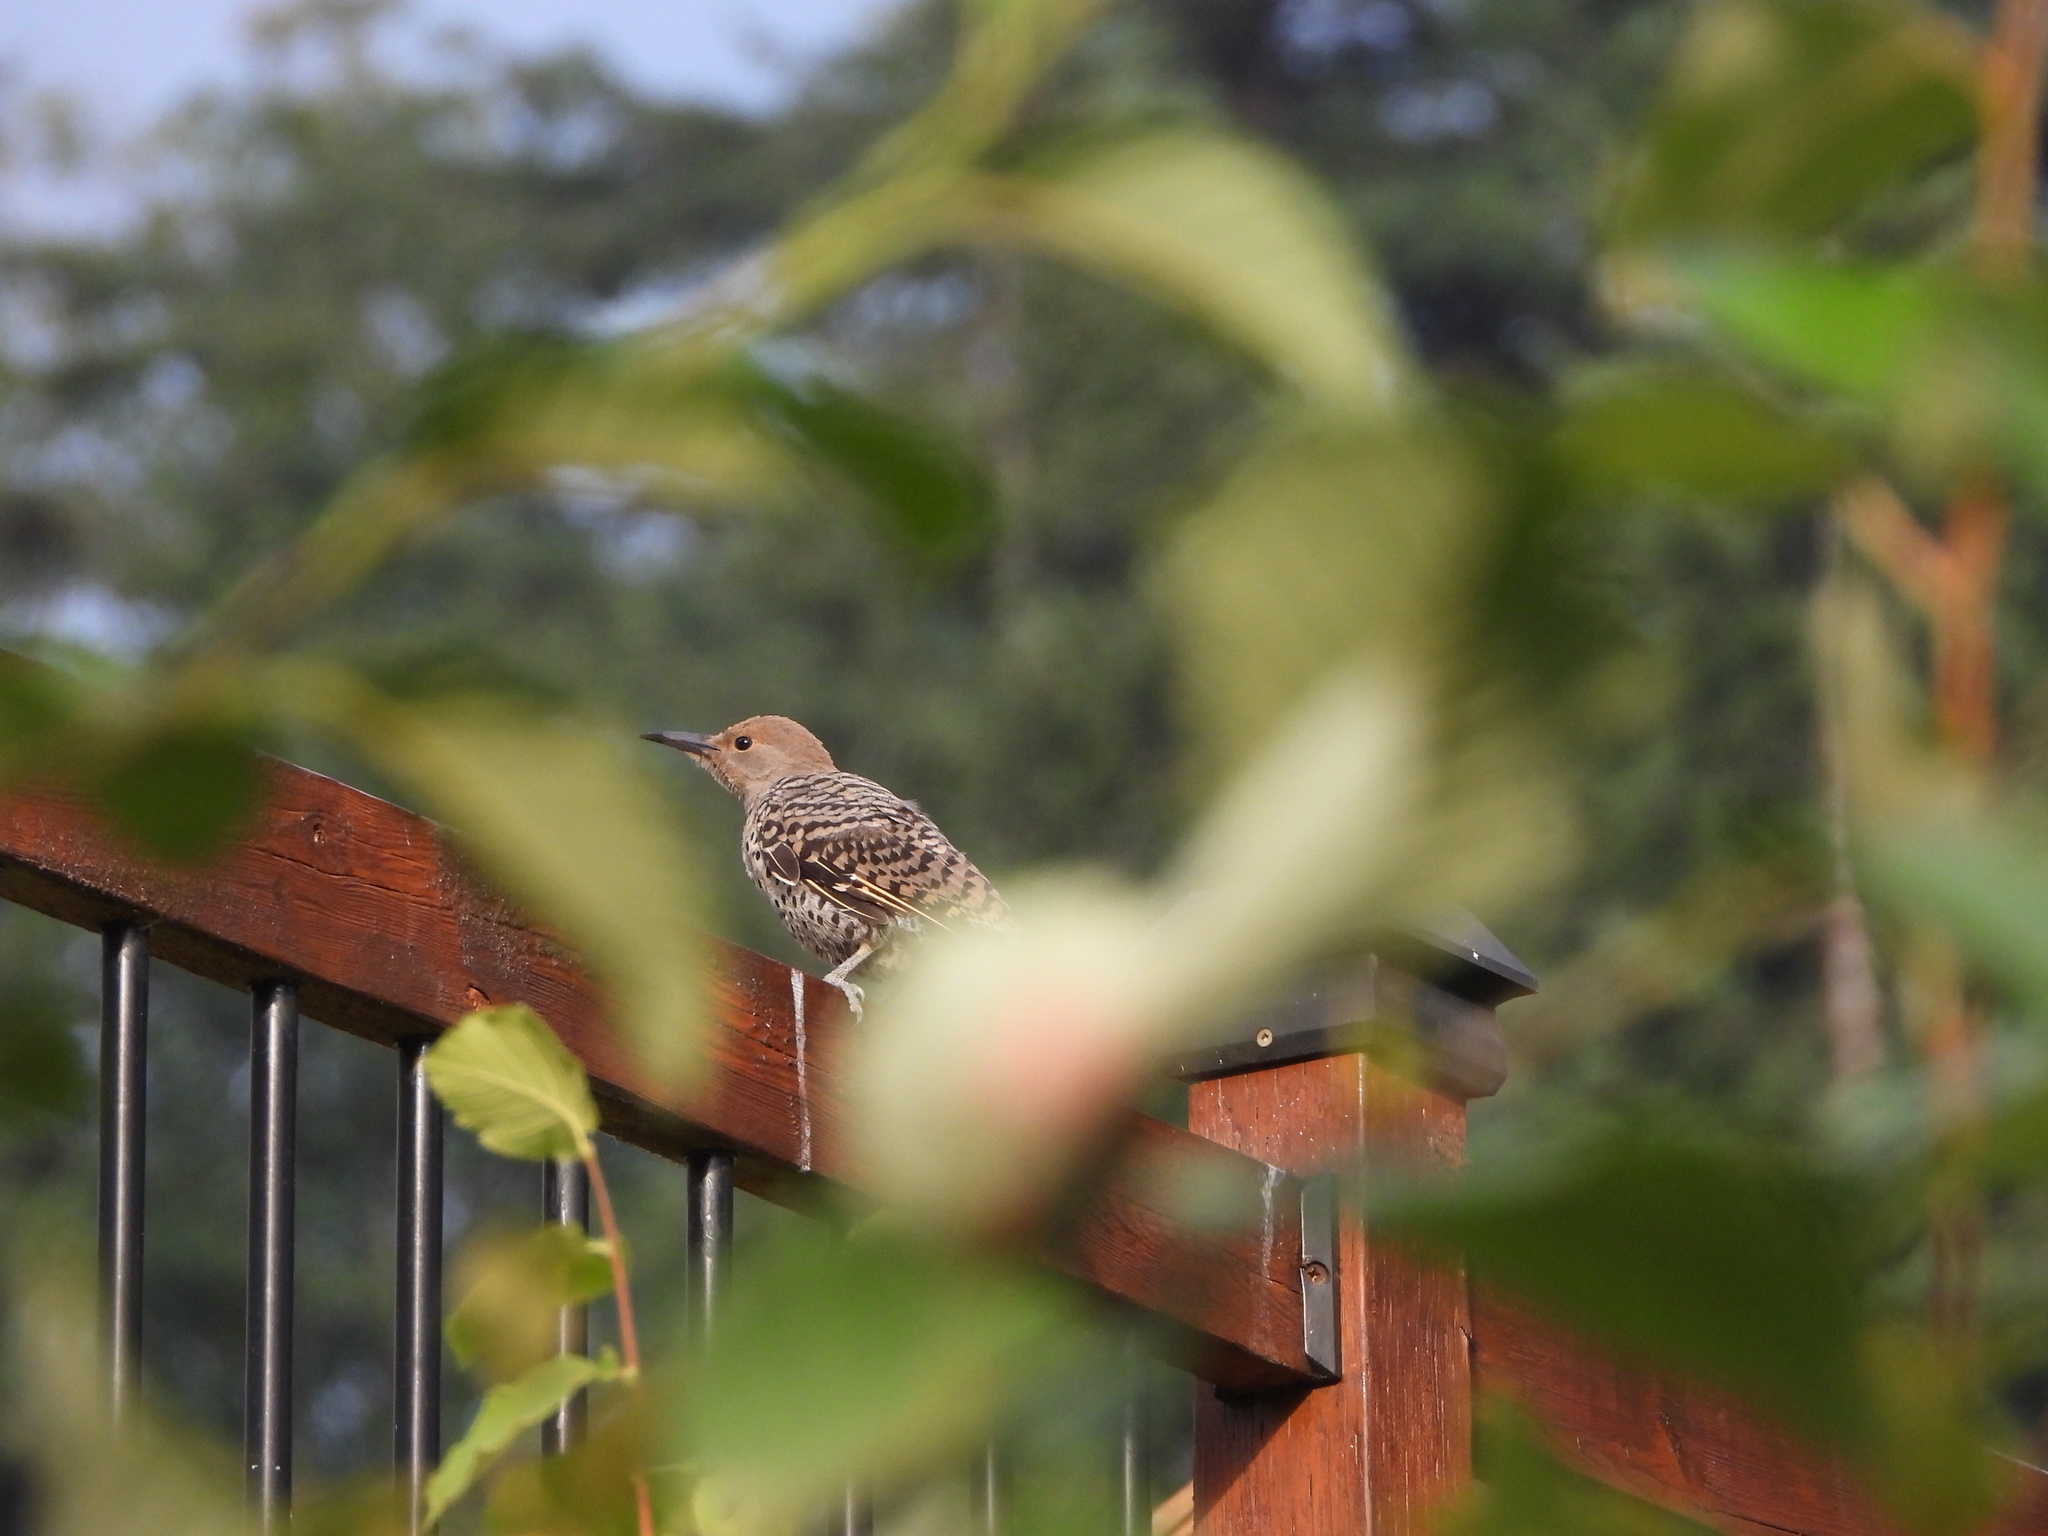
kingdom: Animalia
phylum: Chordata
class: Aves
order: Piciformes
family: Picidae
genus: Colaptes
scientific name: Colaptes
